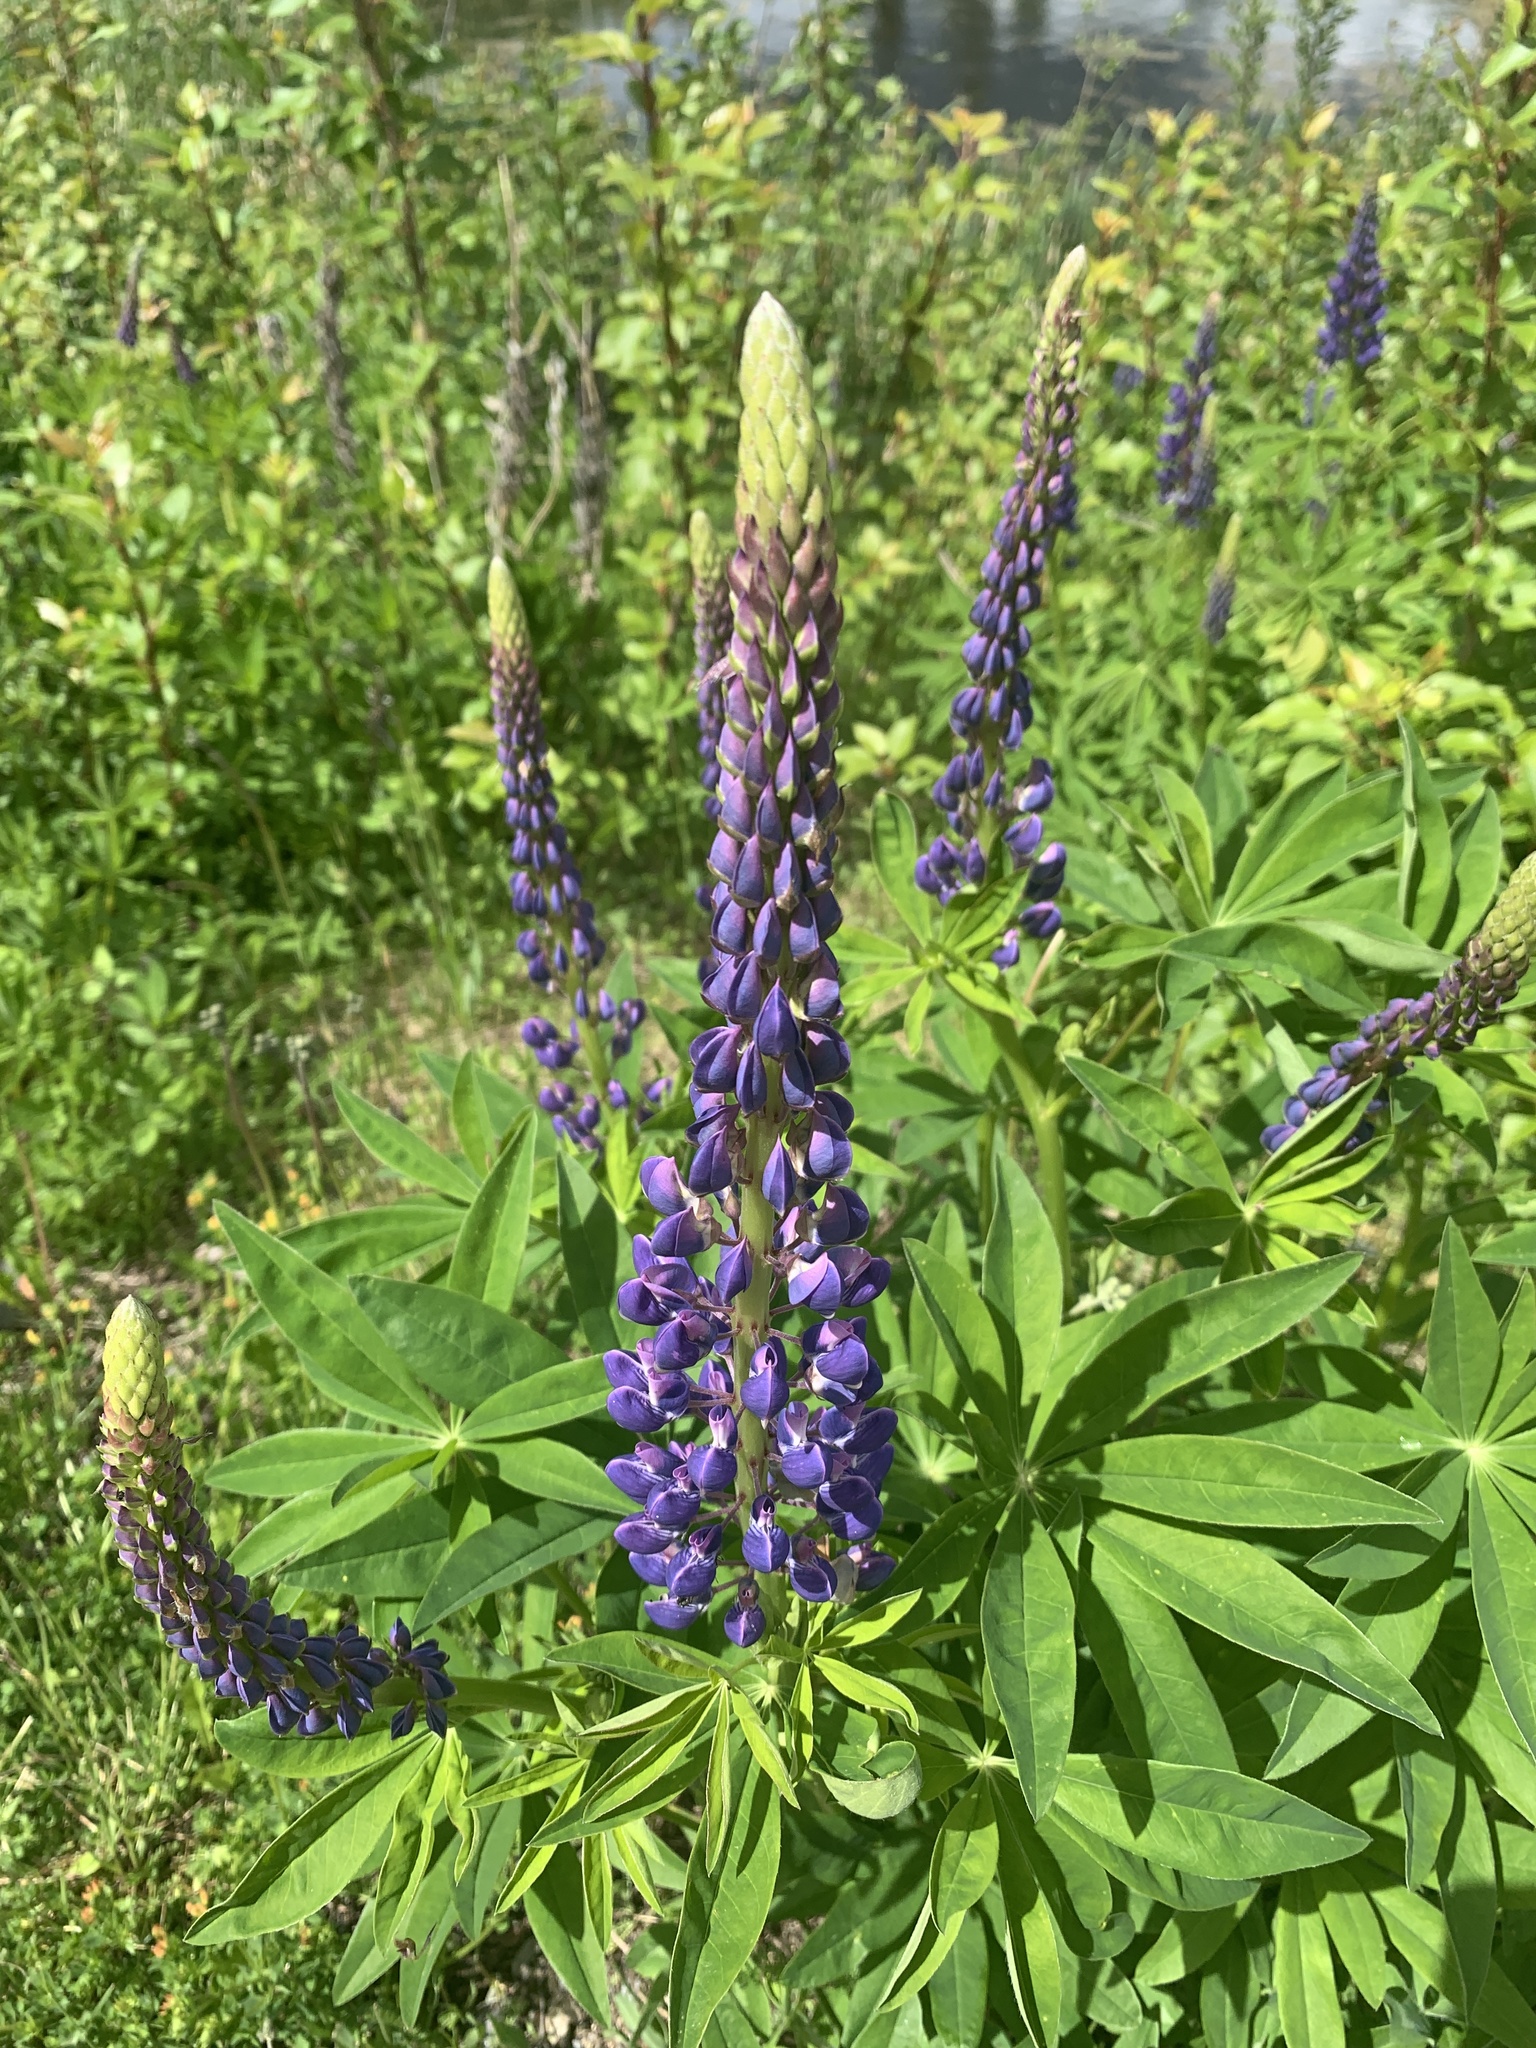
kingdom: Plantae
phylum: Tracheophyta
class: Magnoliopsida
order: Fabales
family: Fabaceae
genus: Lupinus
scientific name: Lupinus polyphyllus
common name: Garden lupin
